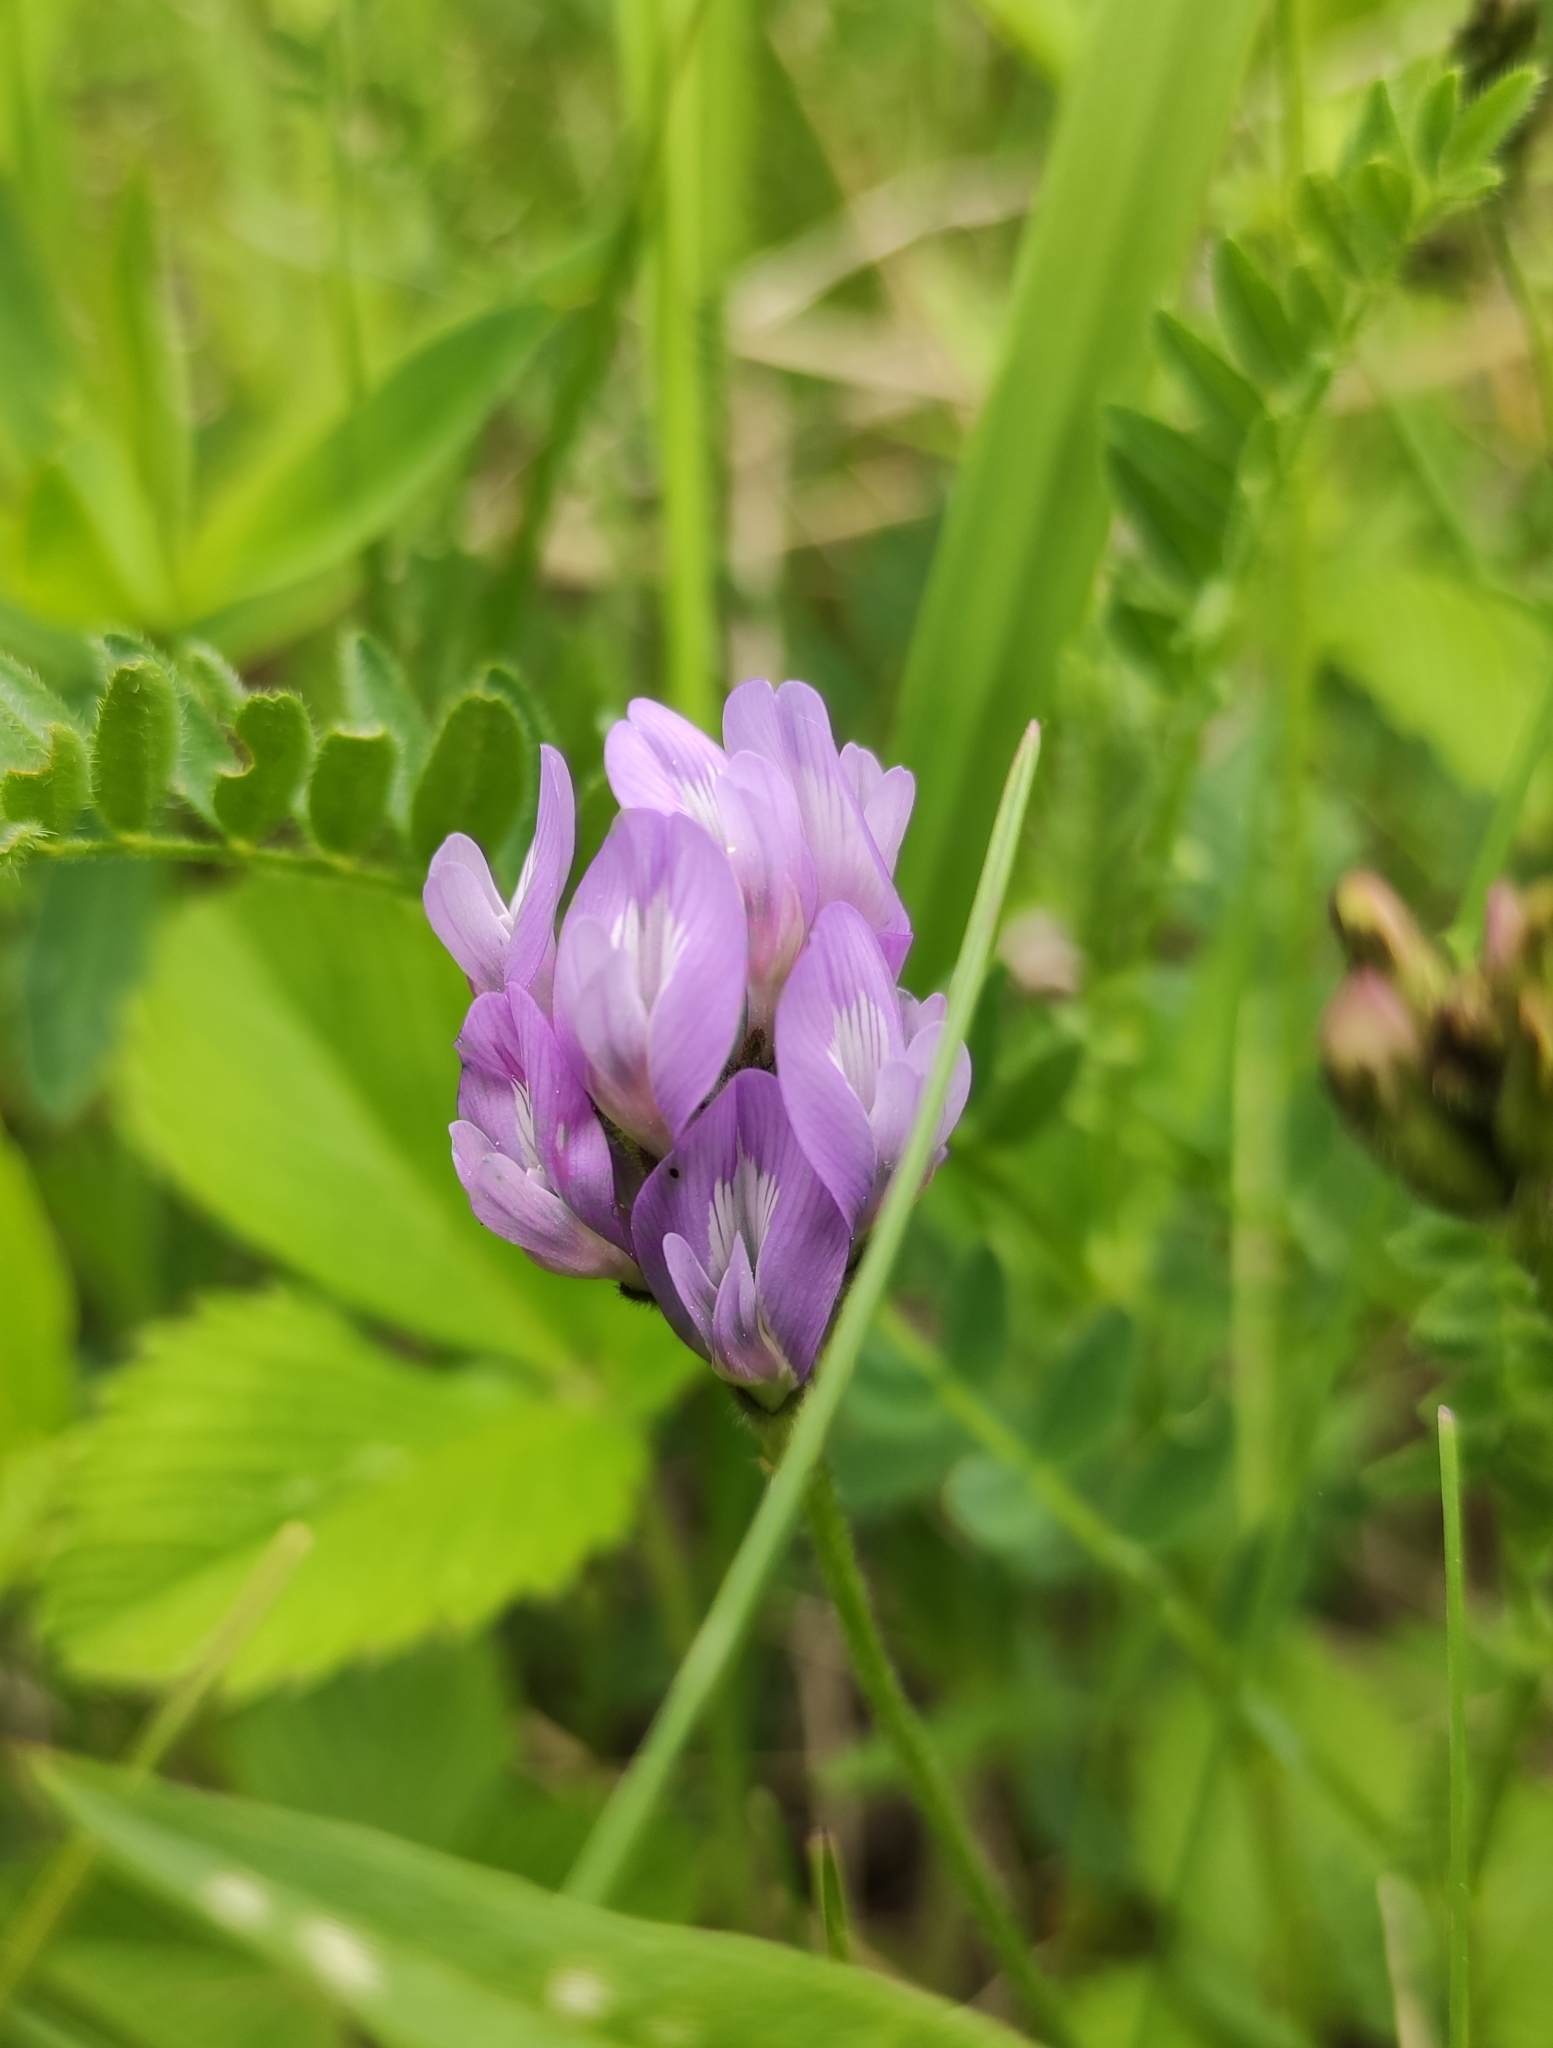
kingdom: Plantae
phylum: Tracheophyta
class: Magnoliopsida
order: Fabales
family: Fabaceae
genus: Astragalus
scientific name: Astragalus danicus
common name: Purple milk-vetch
